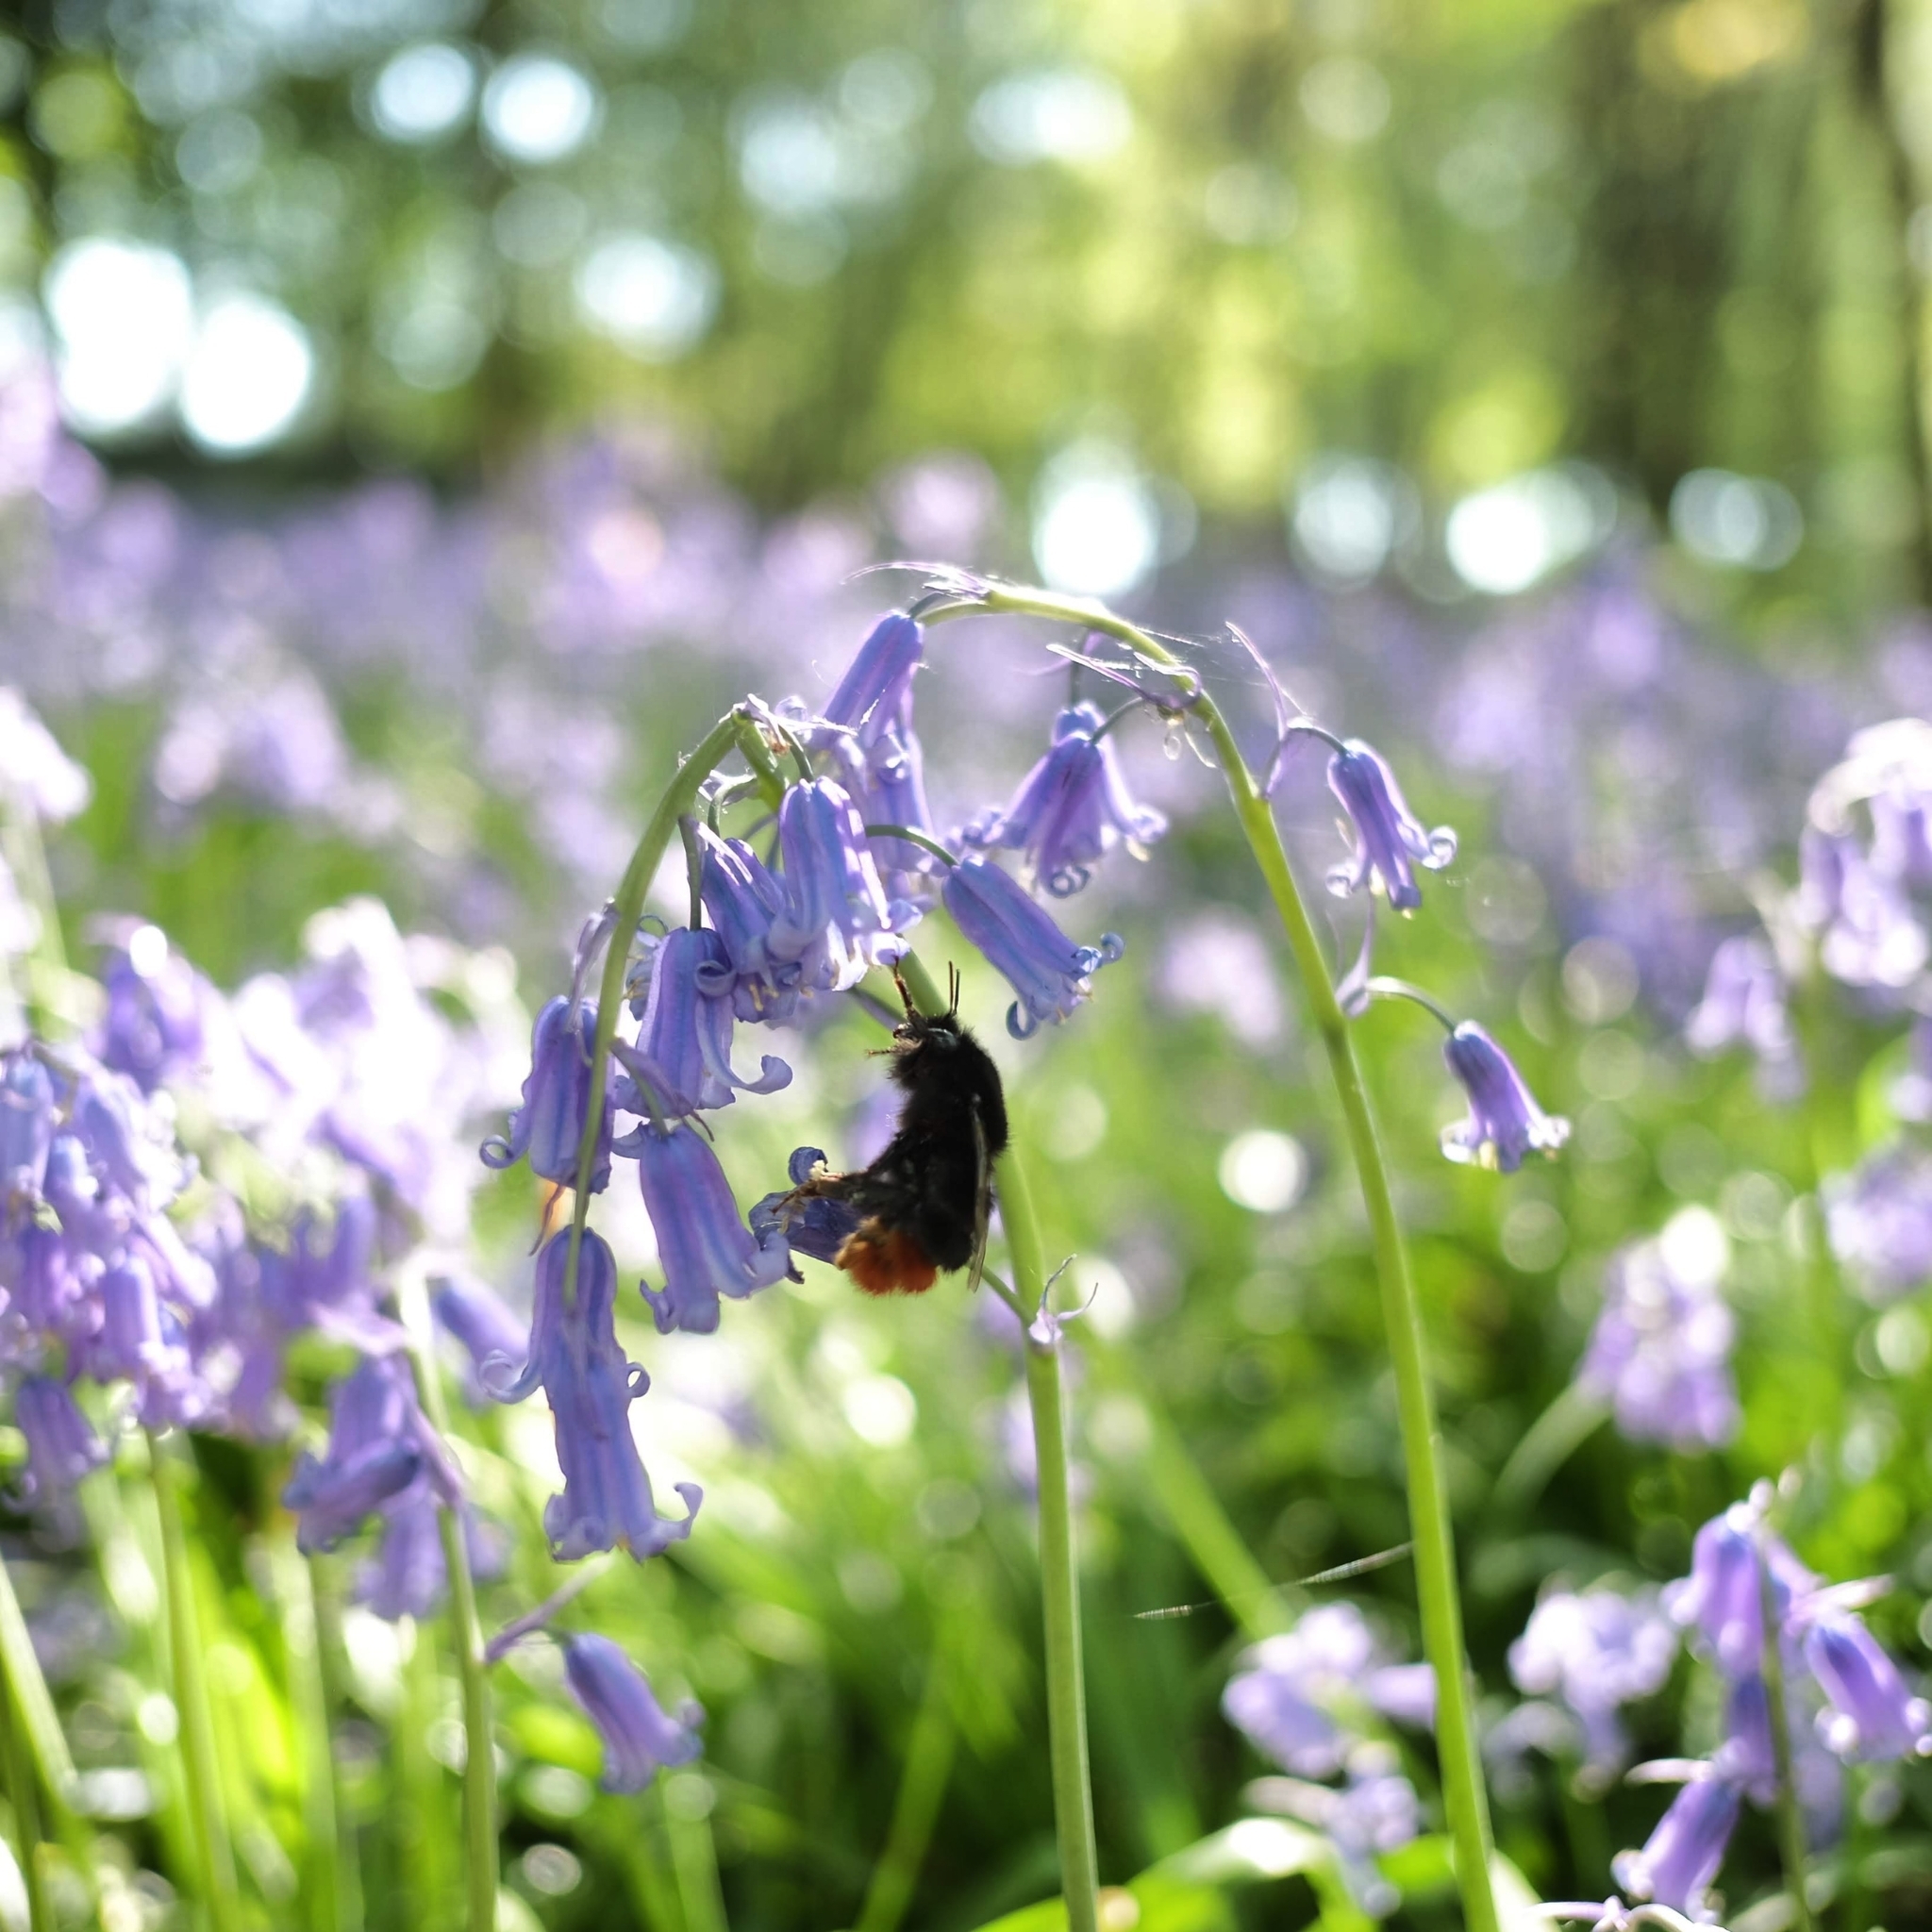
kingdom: Animalia
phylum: Arthropoda
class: Insecta
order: Hymenoptera
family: Apidae
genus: Bombus
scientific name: Bombus lapidarius
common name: Large red-tailed humble-bee
